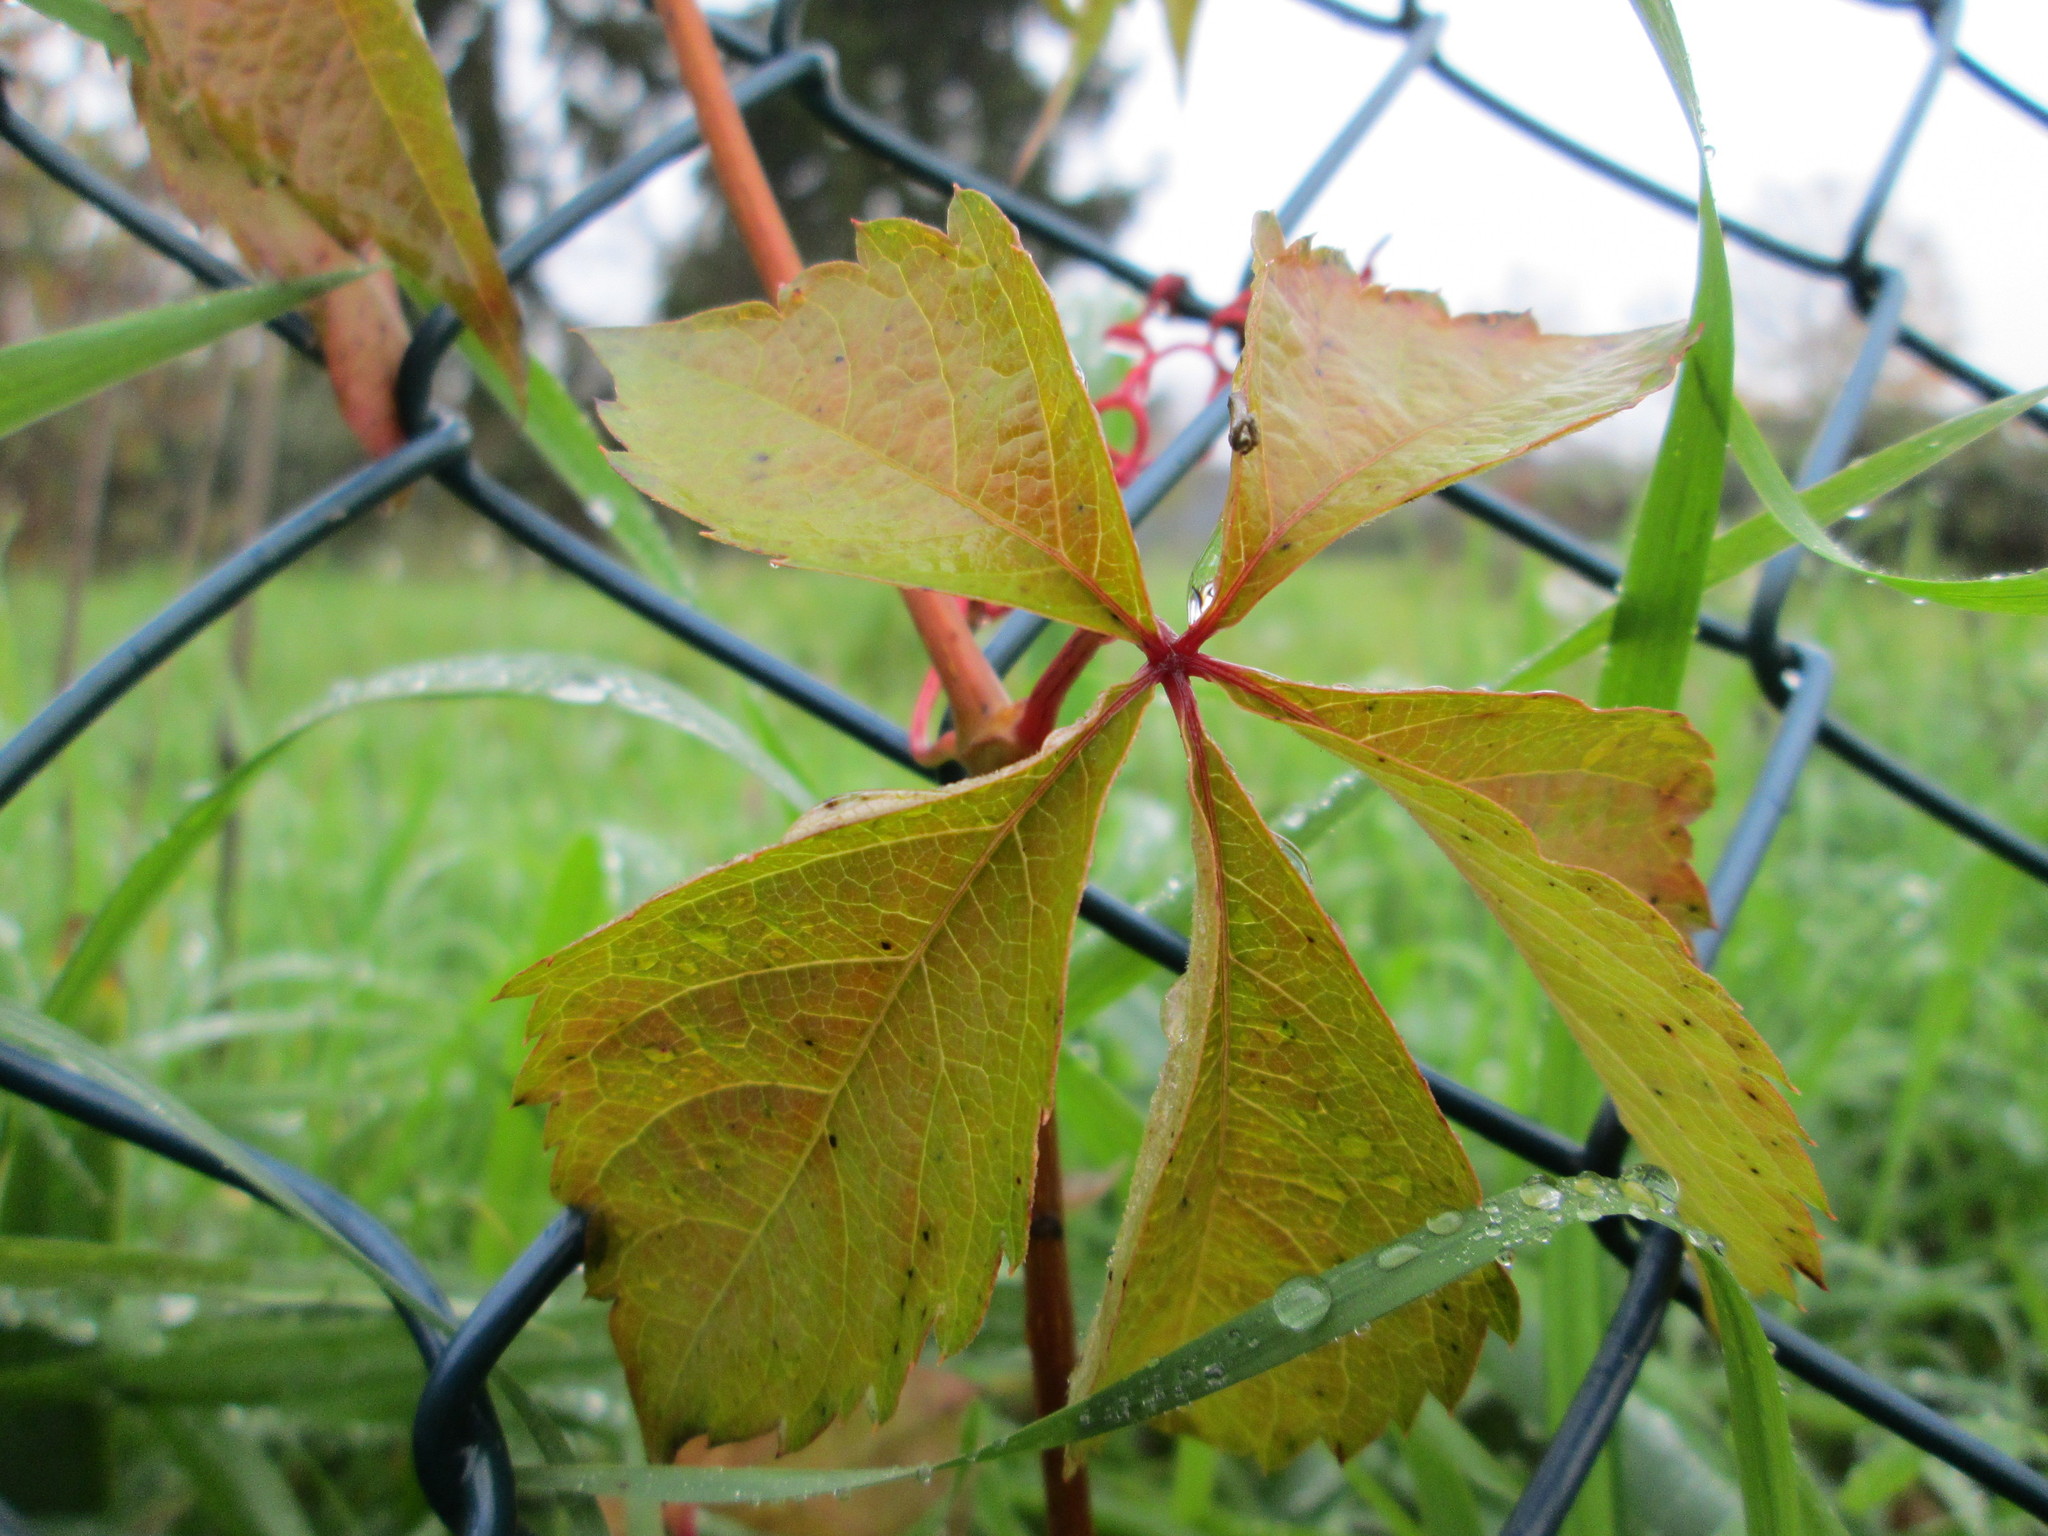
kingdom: Plantae
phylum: Tracheophyta
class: Magnoliopsida
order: Vitales
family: Vitaceae
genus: Parthenocissus
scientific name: Parthenocissus quinquefolia
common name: Virginia-creeper
